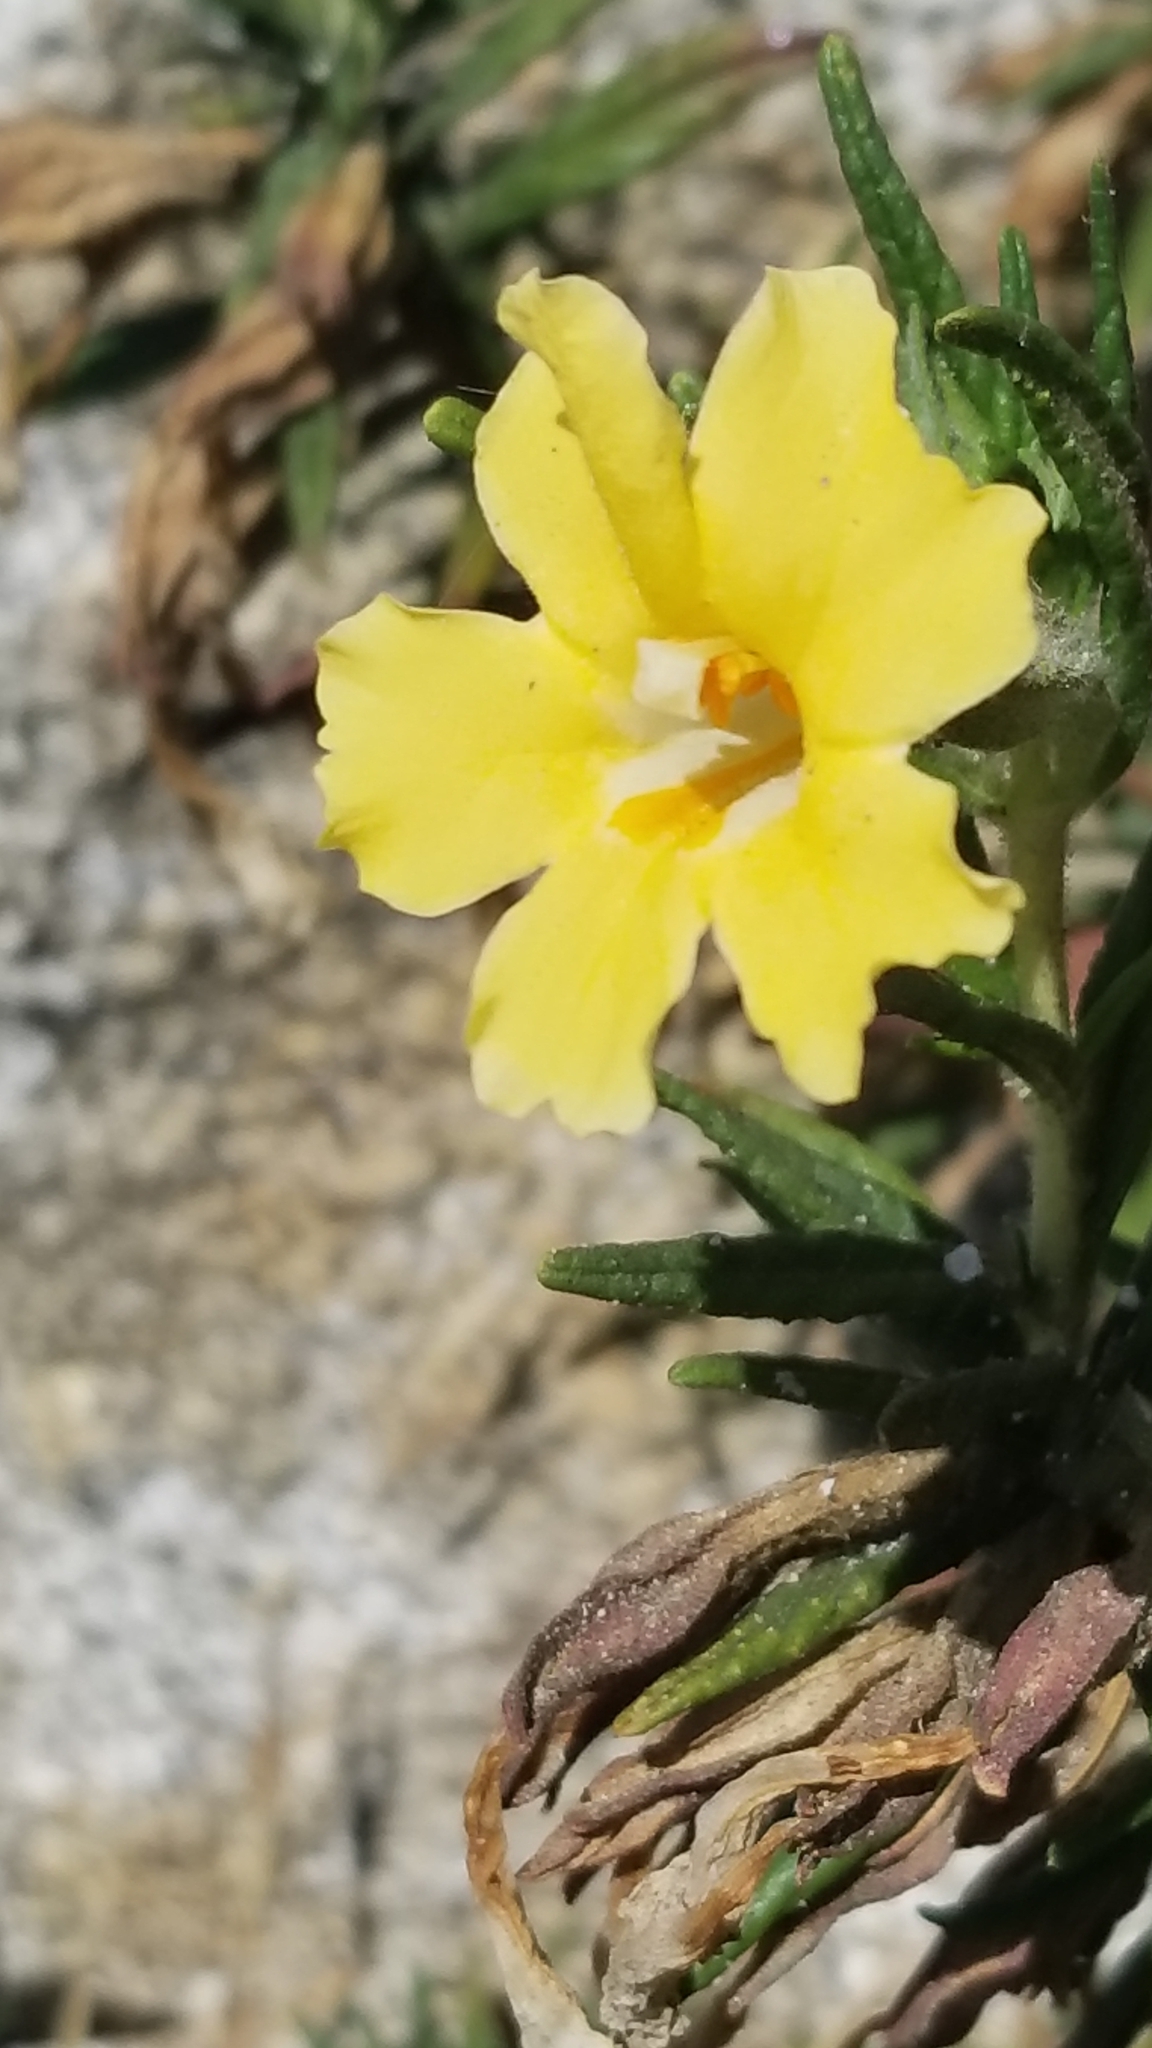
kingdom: Plantae
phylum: Tracheophyta
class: Magnoliopsida
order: Lamiales
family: Phrymaceae
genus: Diplacus
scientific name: Diplacus calycinus
